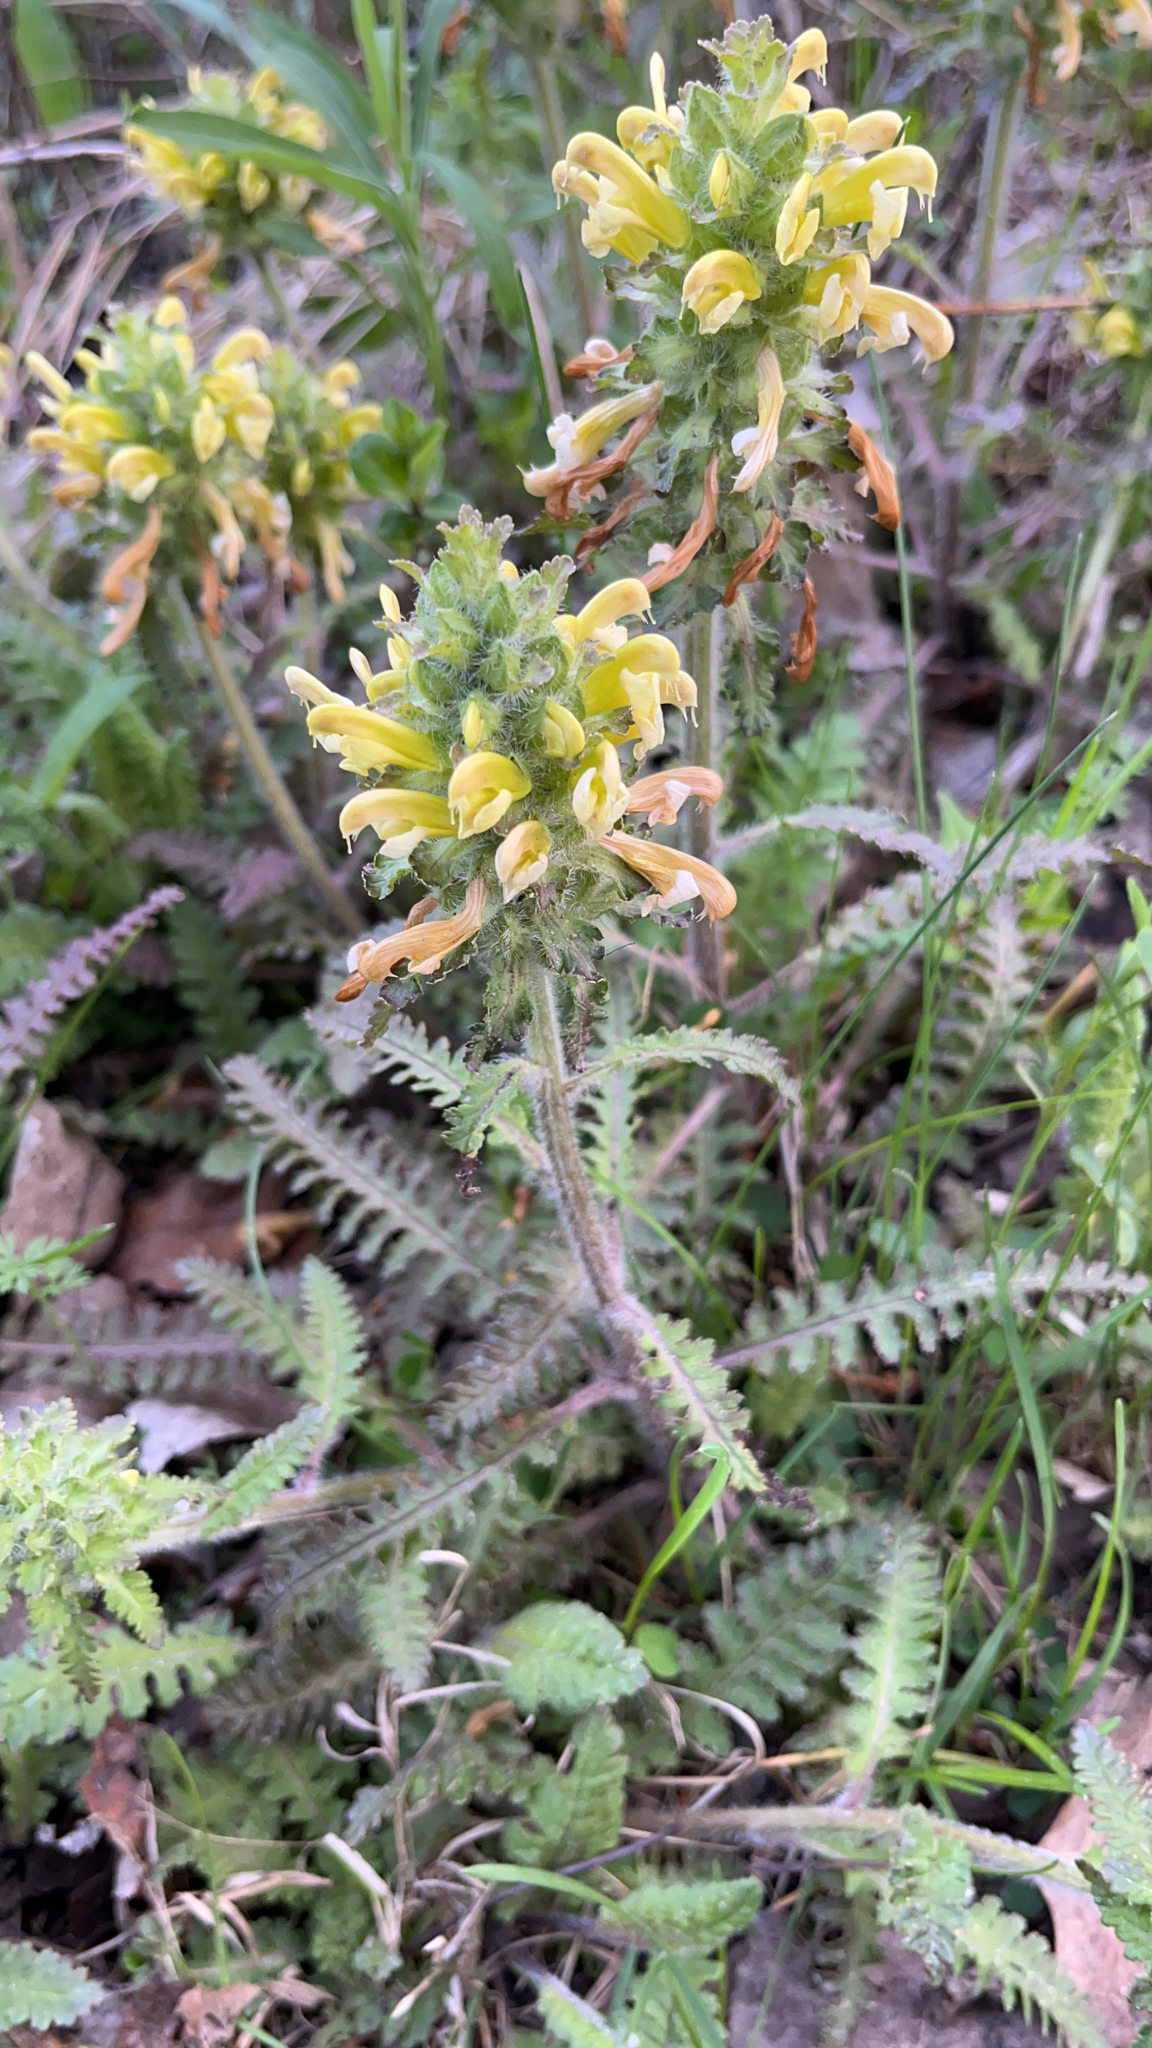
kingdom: Plantae
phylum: Tracheophyta
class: Magnoliopsida
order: Lamiales
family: Orobanchaceae
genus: Pedicularis
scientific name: Pedicularis canadensis
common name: Early lousewort
